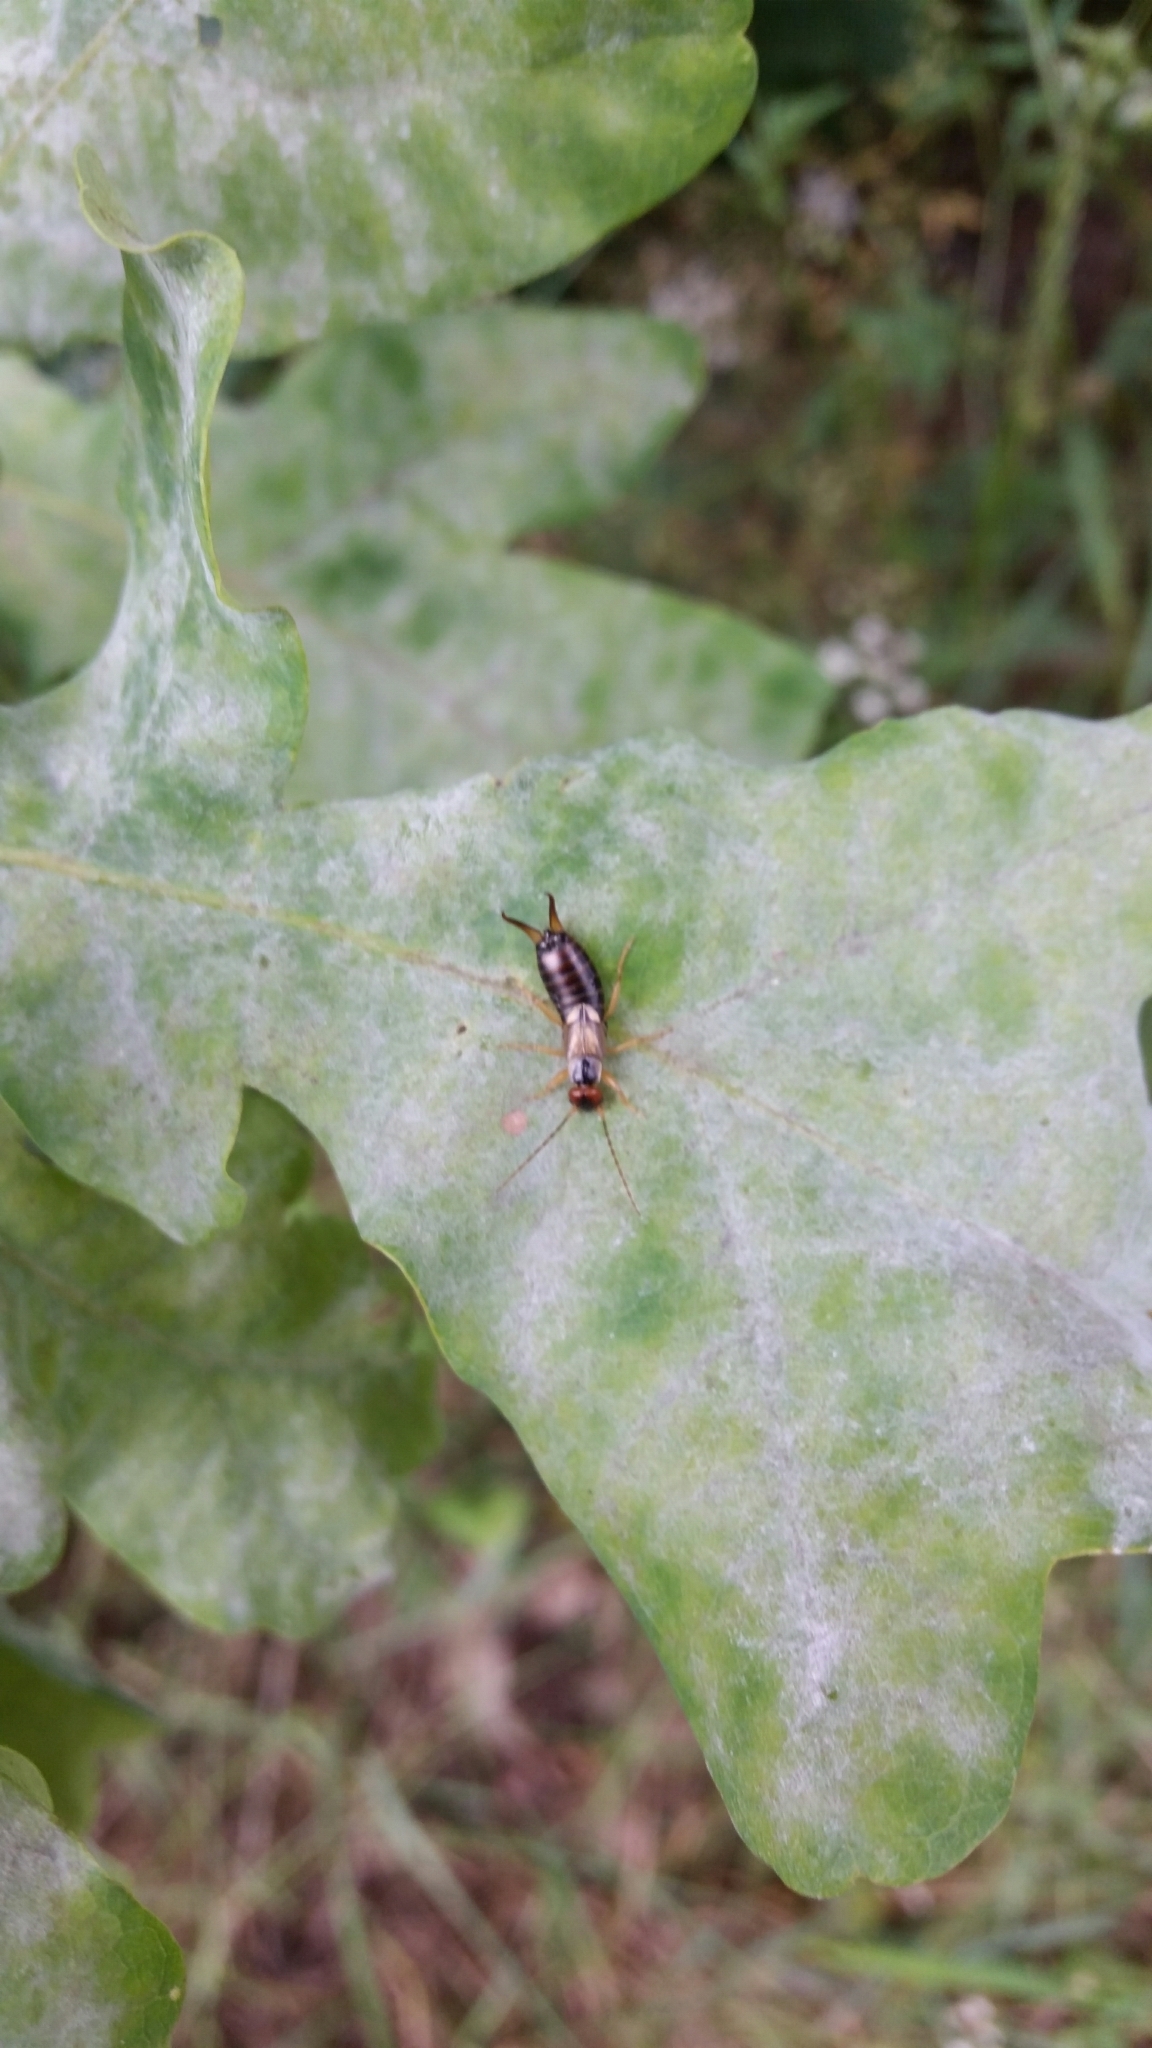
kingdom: Animalia
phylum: Arthropoda
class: Insecta
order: Dermaptera
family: Forficulidae
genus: Forficula
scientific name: Forficula
